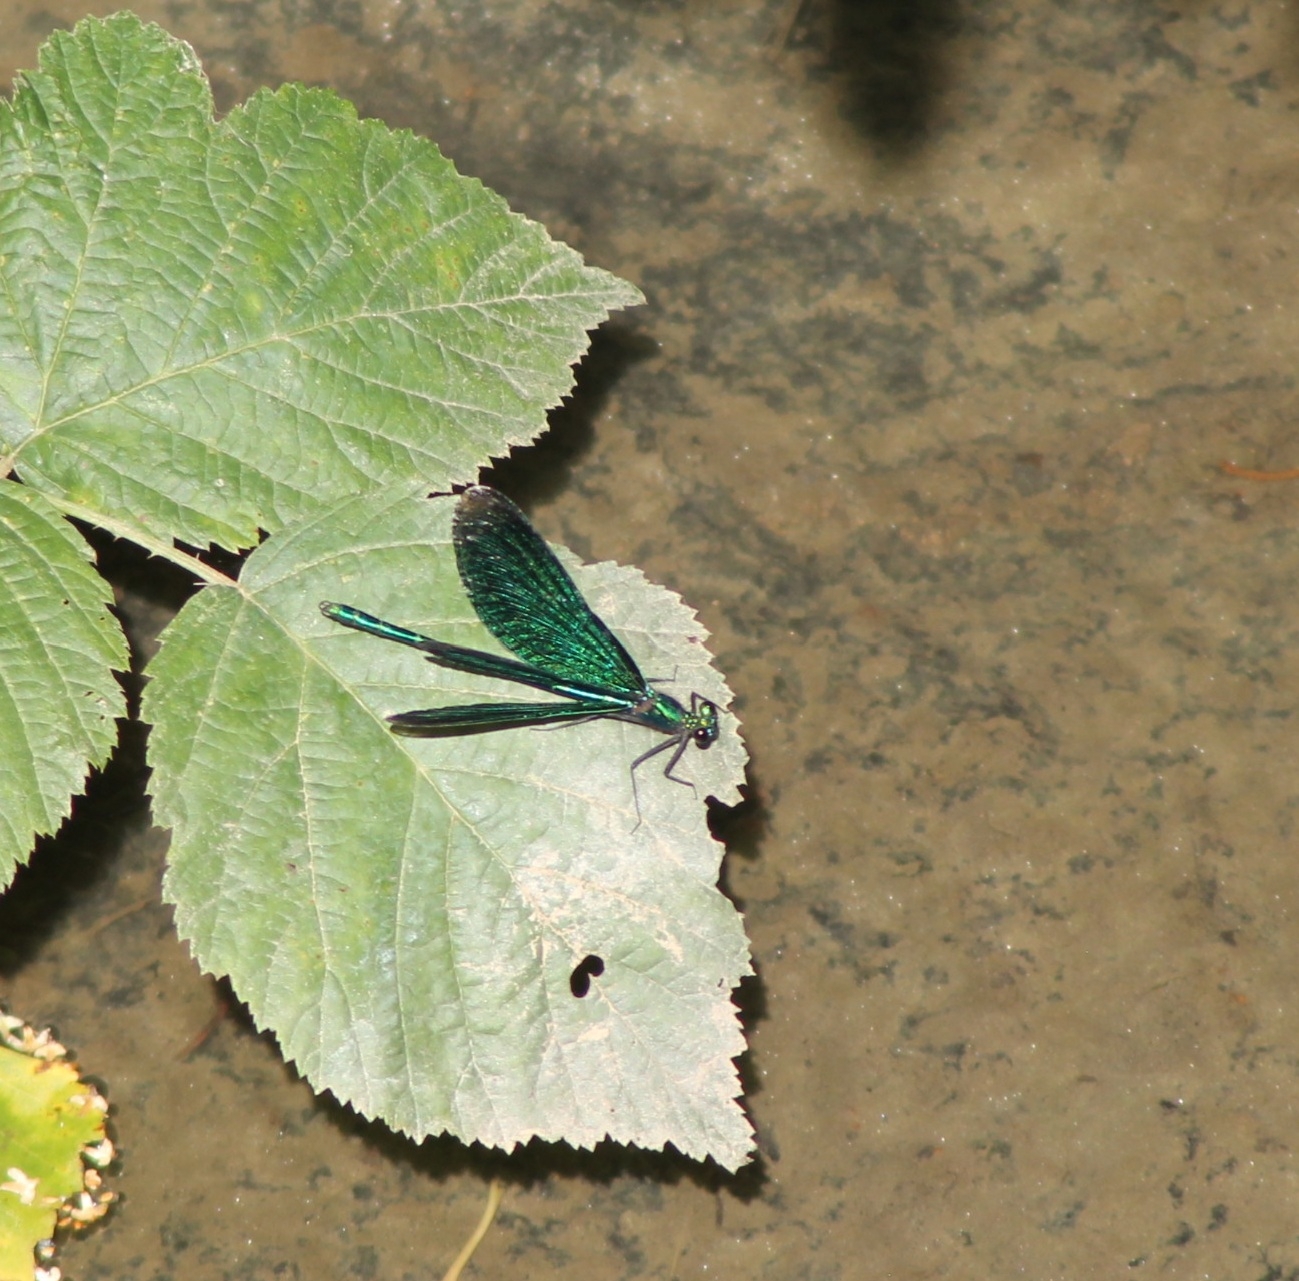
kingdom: Animalia
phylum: Arthropoda
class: Insecta
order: Odonata
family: Calopterygidae
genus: Calopteryx
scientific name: Calopteryx virgo
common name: Beautiful demoiselle
